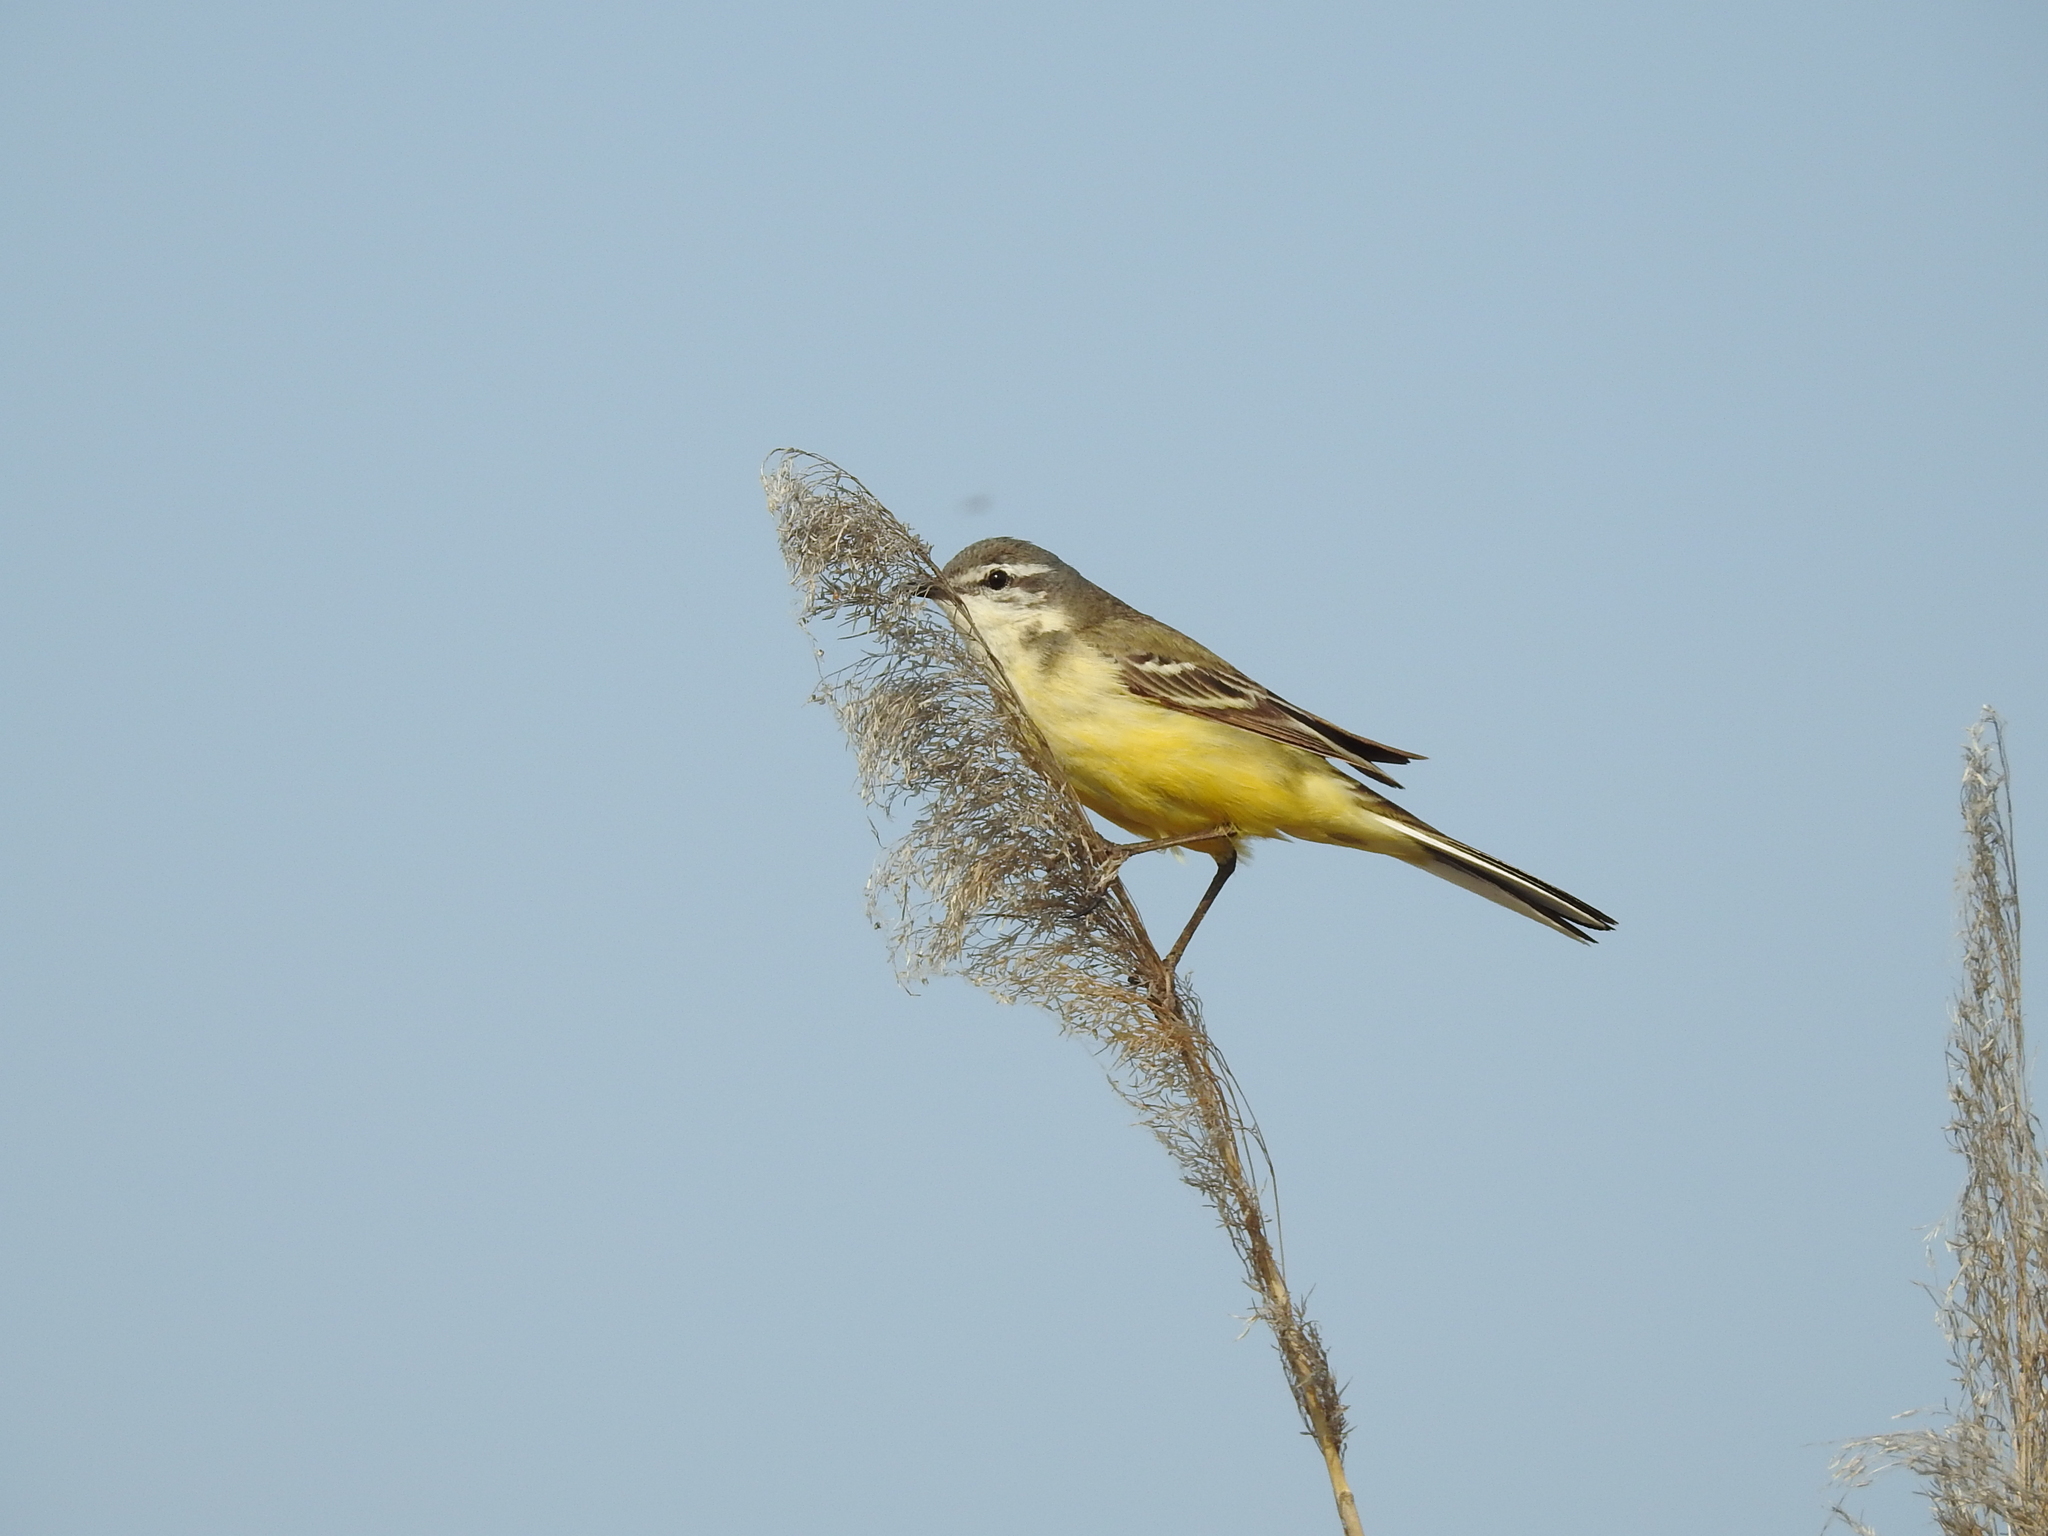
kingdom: Animalia
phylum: Chordata
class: Aves
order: Passeriformes
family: Motacillidae
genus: Motacilla
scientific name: Motacilla flava
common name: Western yellow wagtail
